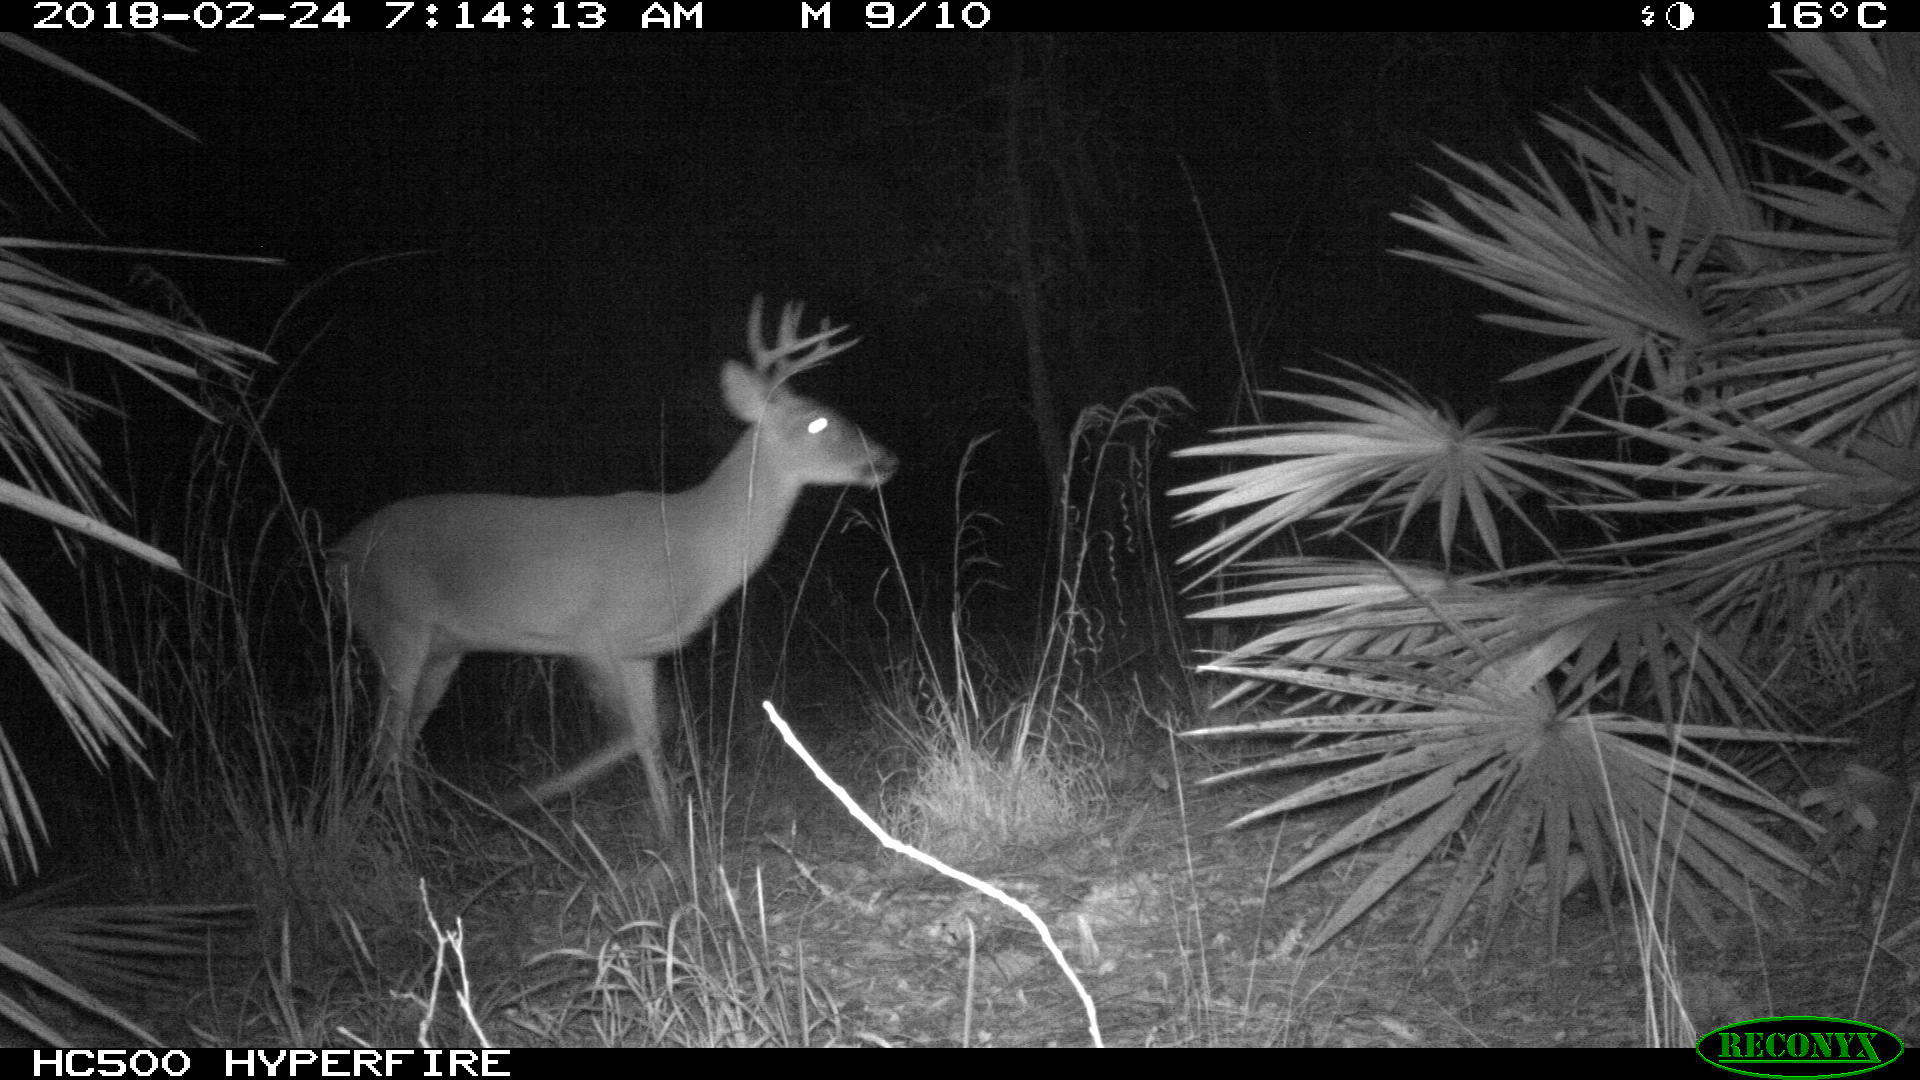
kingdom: Animalia
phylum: Chordata
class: Mammalia
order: Artiodactyla
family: Cervidae
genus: Odocoileus
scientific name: Odocoileus virginianus
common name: White-tailed deer
